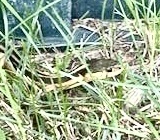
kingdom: Animalia
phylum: Chordata
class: Squamata
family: Colubridae
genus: Thamnophis
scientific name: Thamnophis sirtalis
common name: Common garter snake
